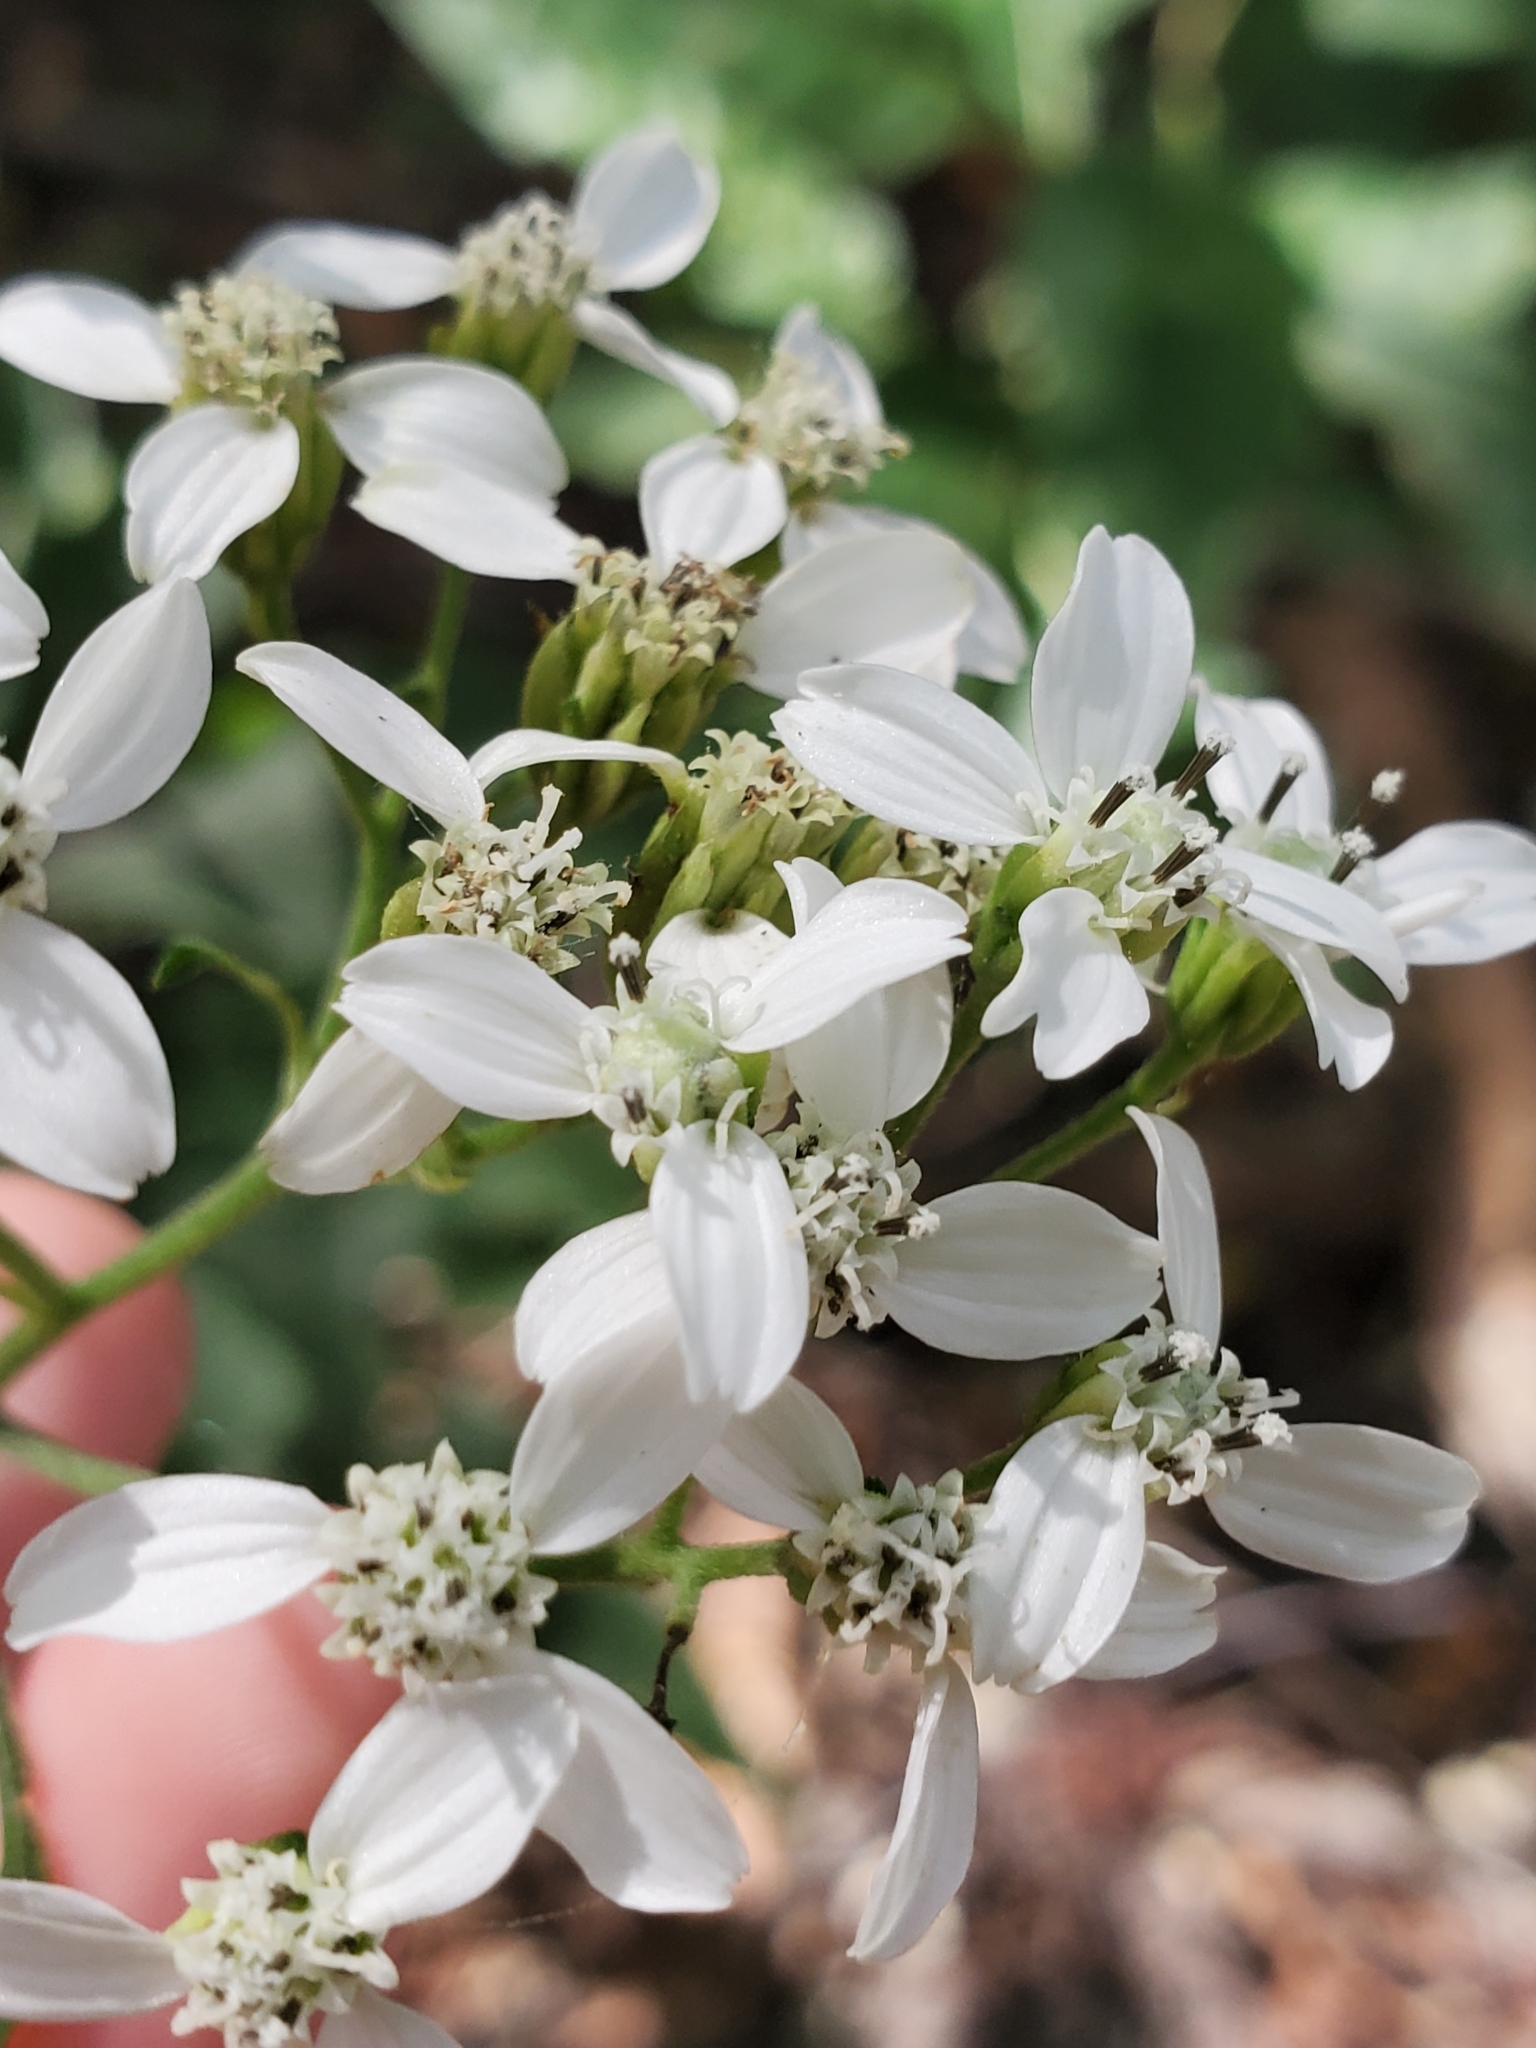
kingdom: Plantae
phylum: Tracheophyta
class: Magnoliopsida
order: Asterales
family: Asteraceae
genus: Verbesina
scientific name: Verbesina virginica
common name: Frostweed
